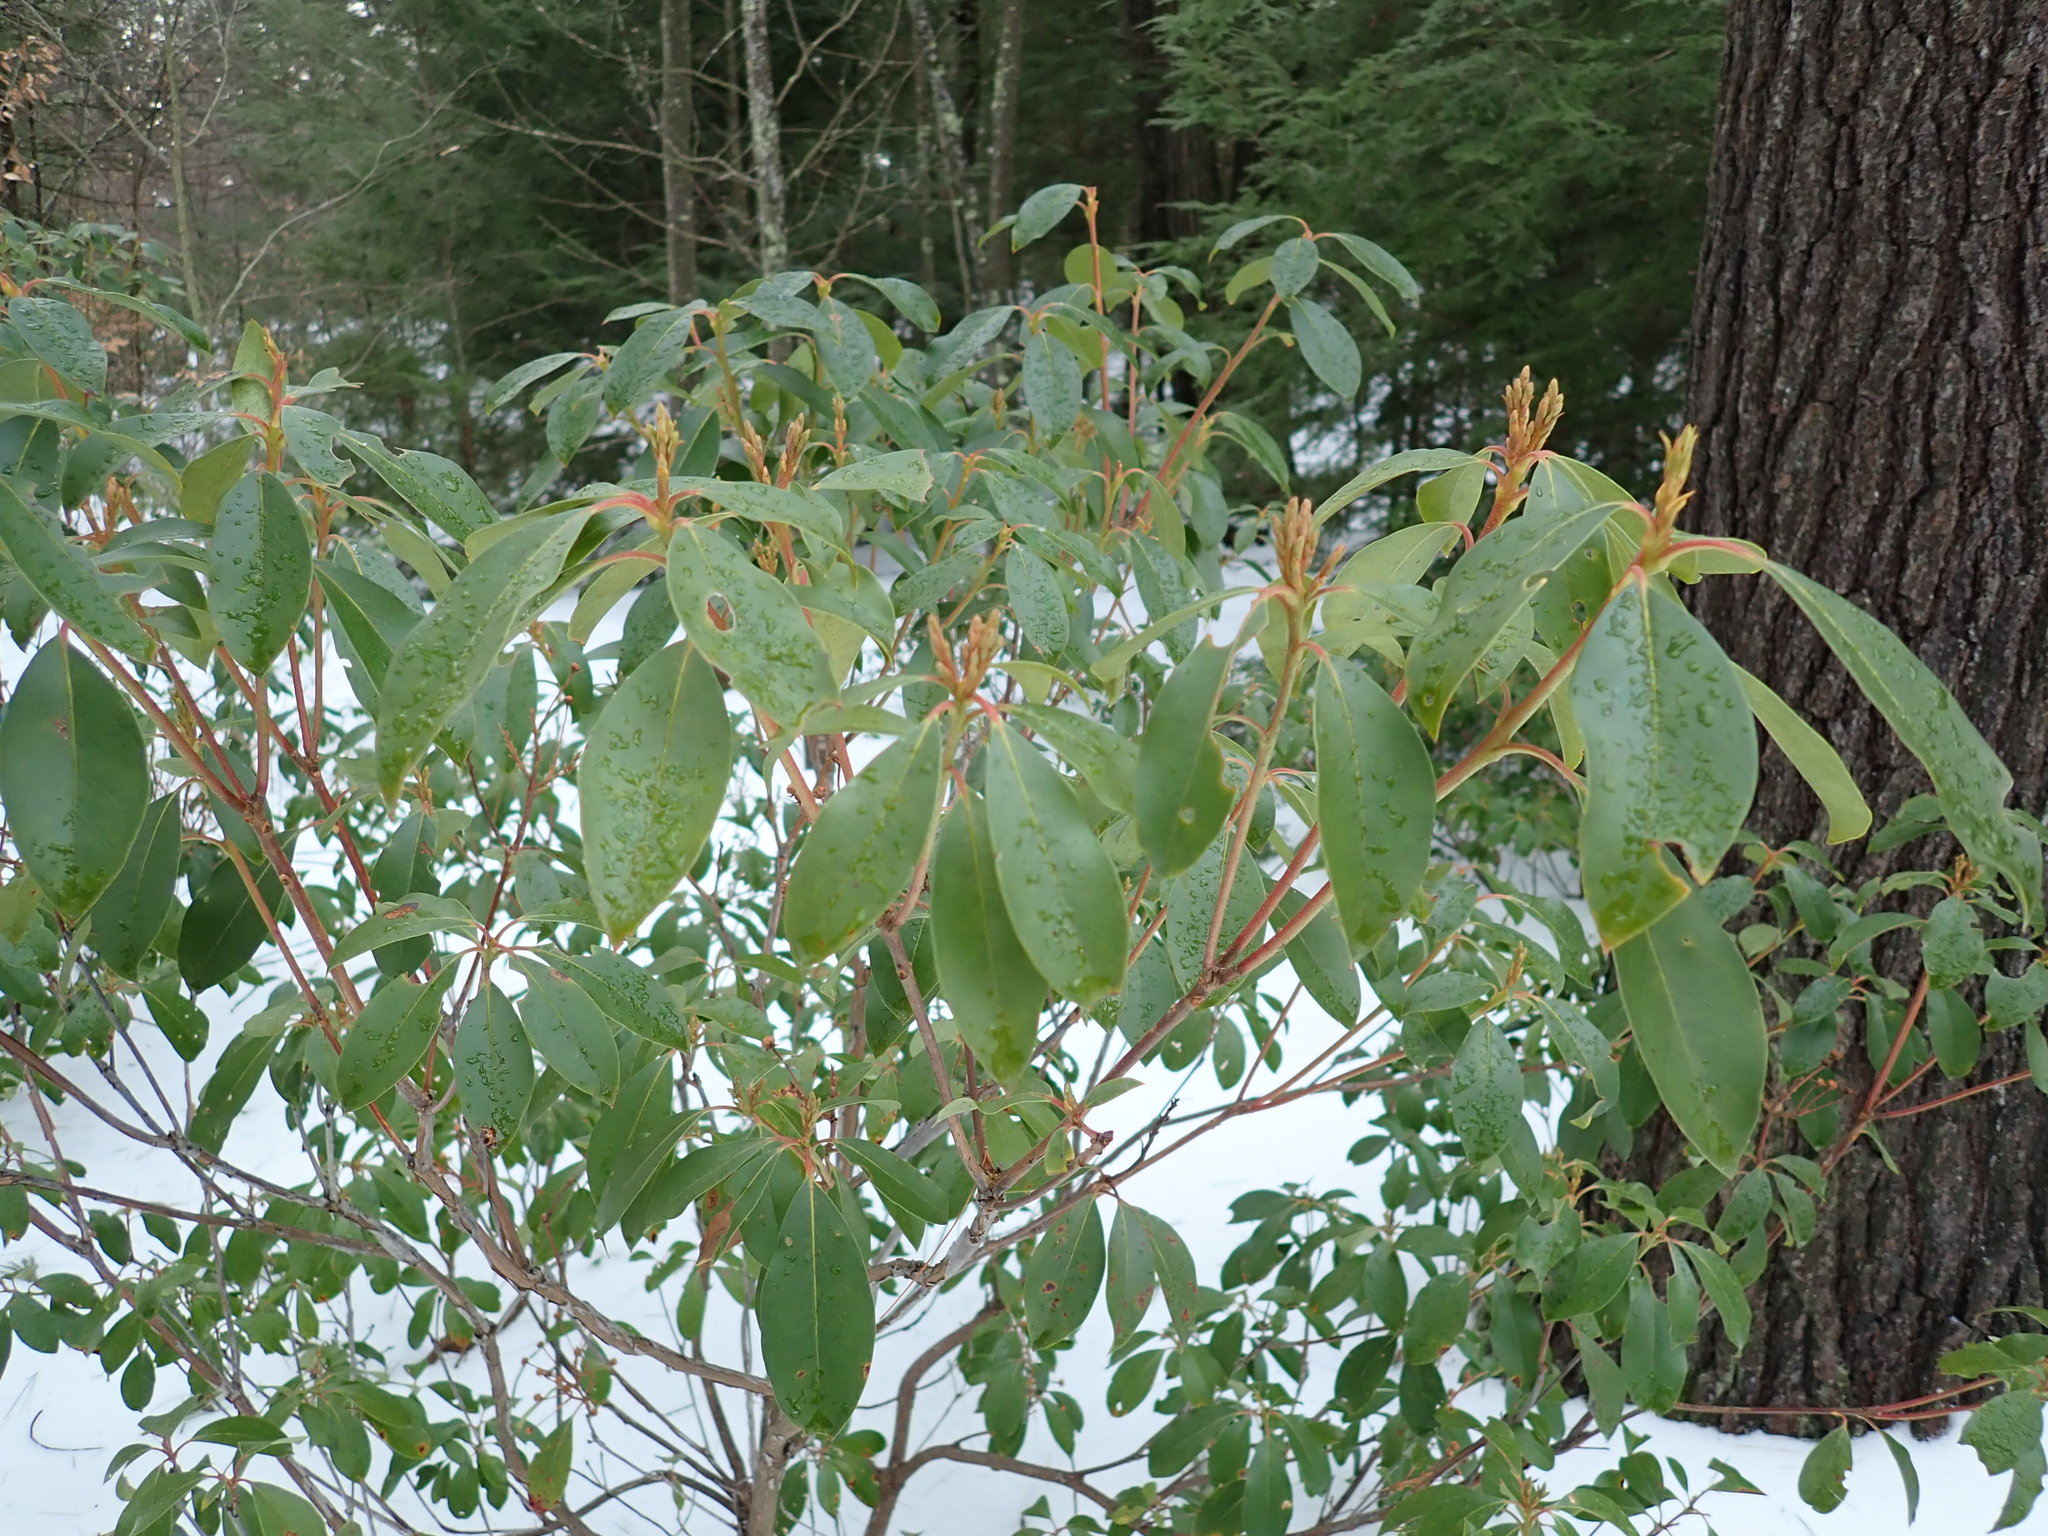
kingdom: Plantae
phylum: Tracheophyta
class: Magnoliopsida
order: Ericales
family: Ericaceae
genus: Kalmia
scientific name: Kalmia latifolia
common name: Mountain-laurel
